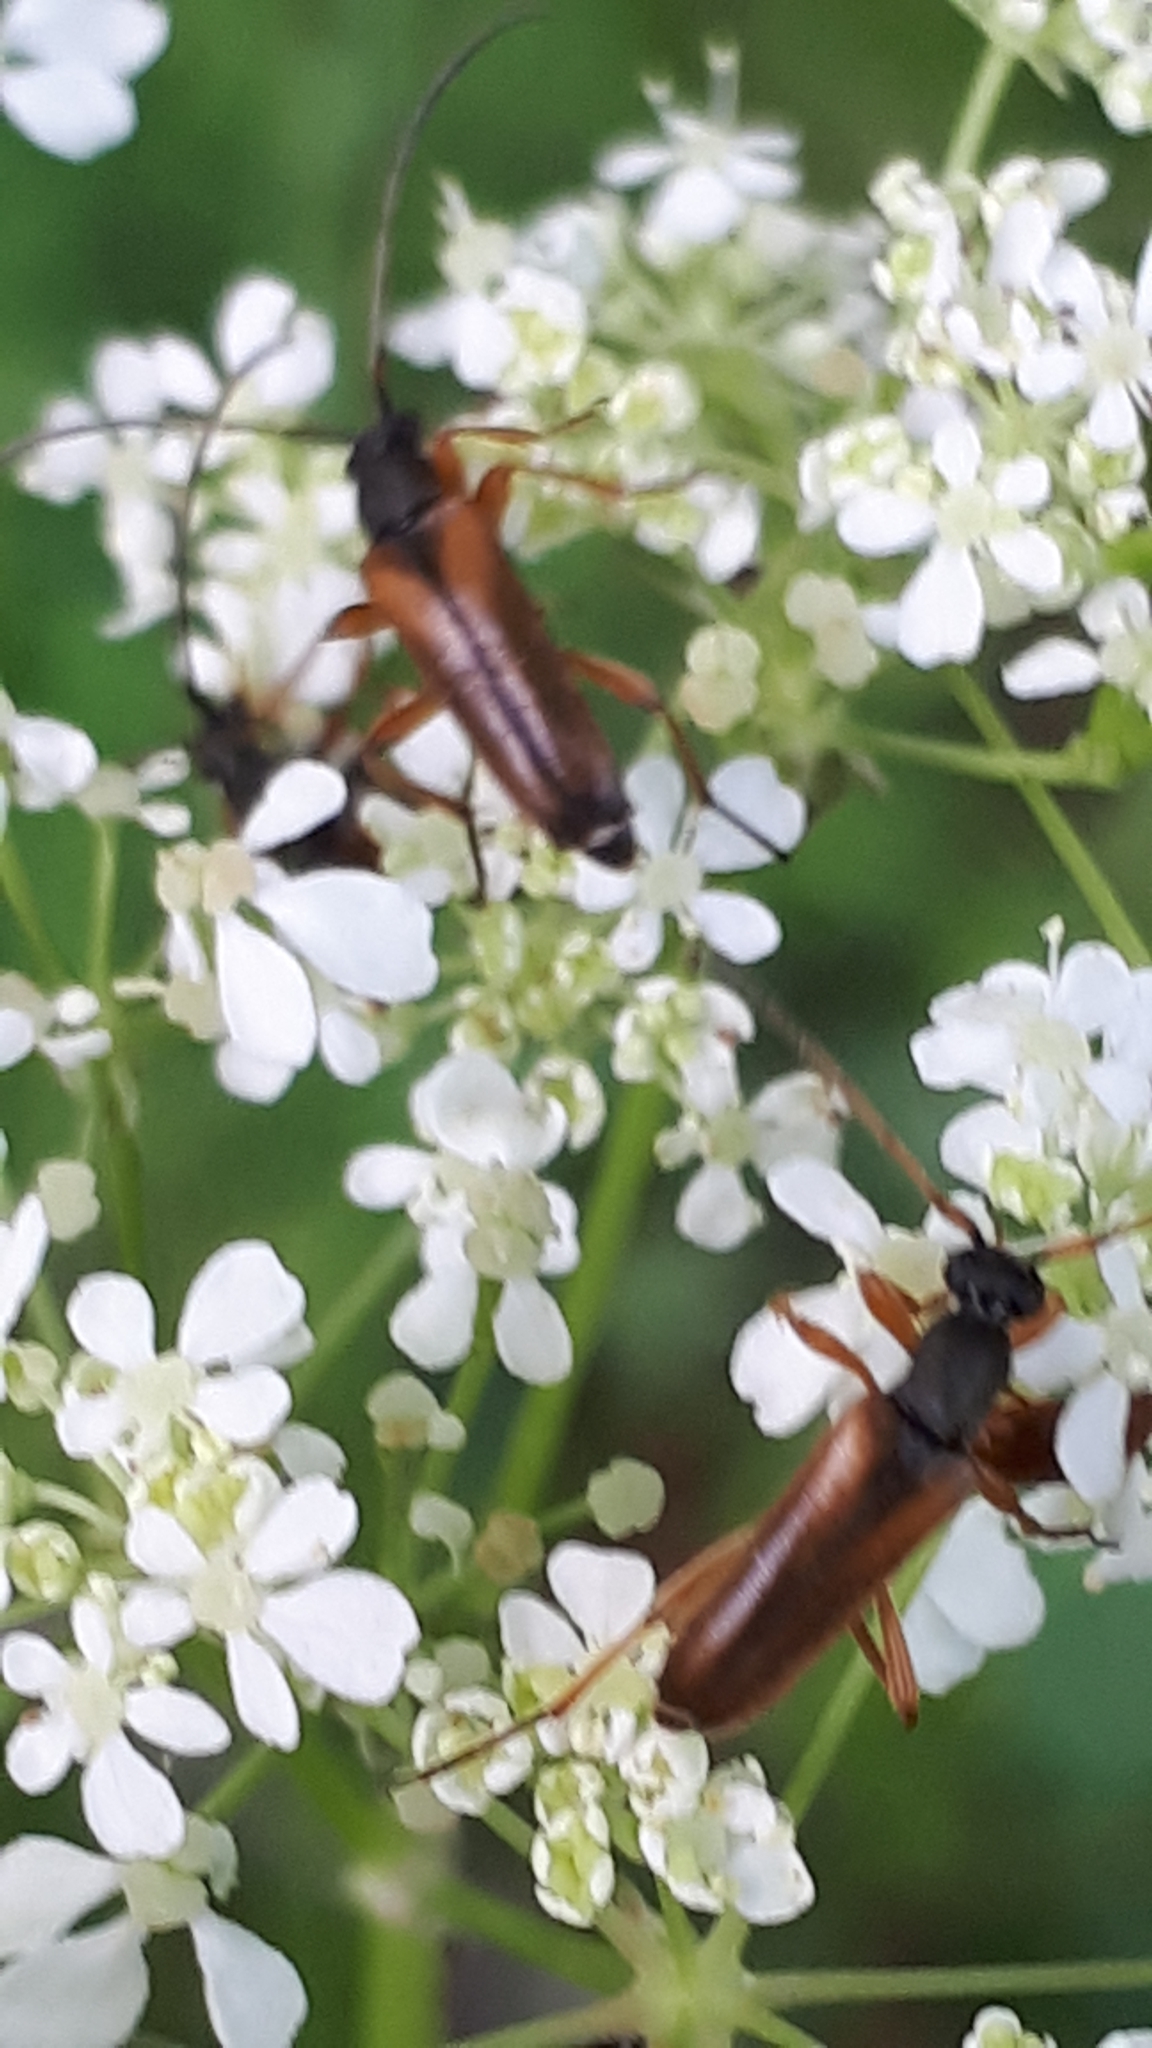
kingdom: Animalia
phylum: Arthropoda
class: Insecta
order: Coleoptera
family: Cerambycidae
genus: Alosterna
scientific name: Alosterna tabacicolor
